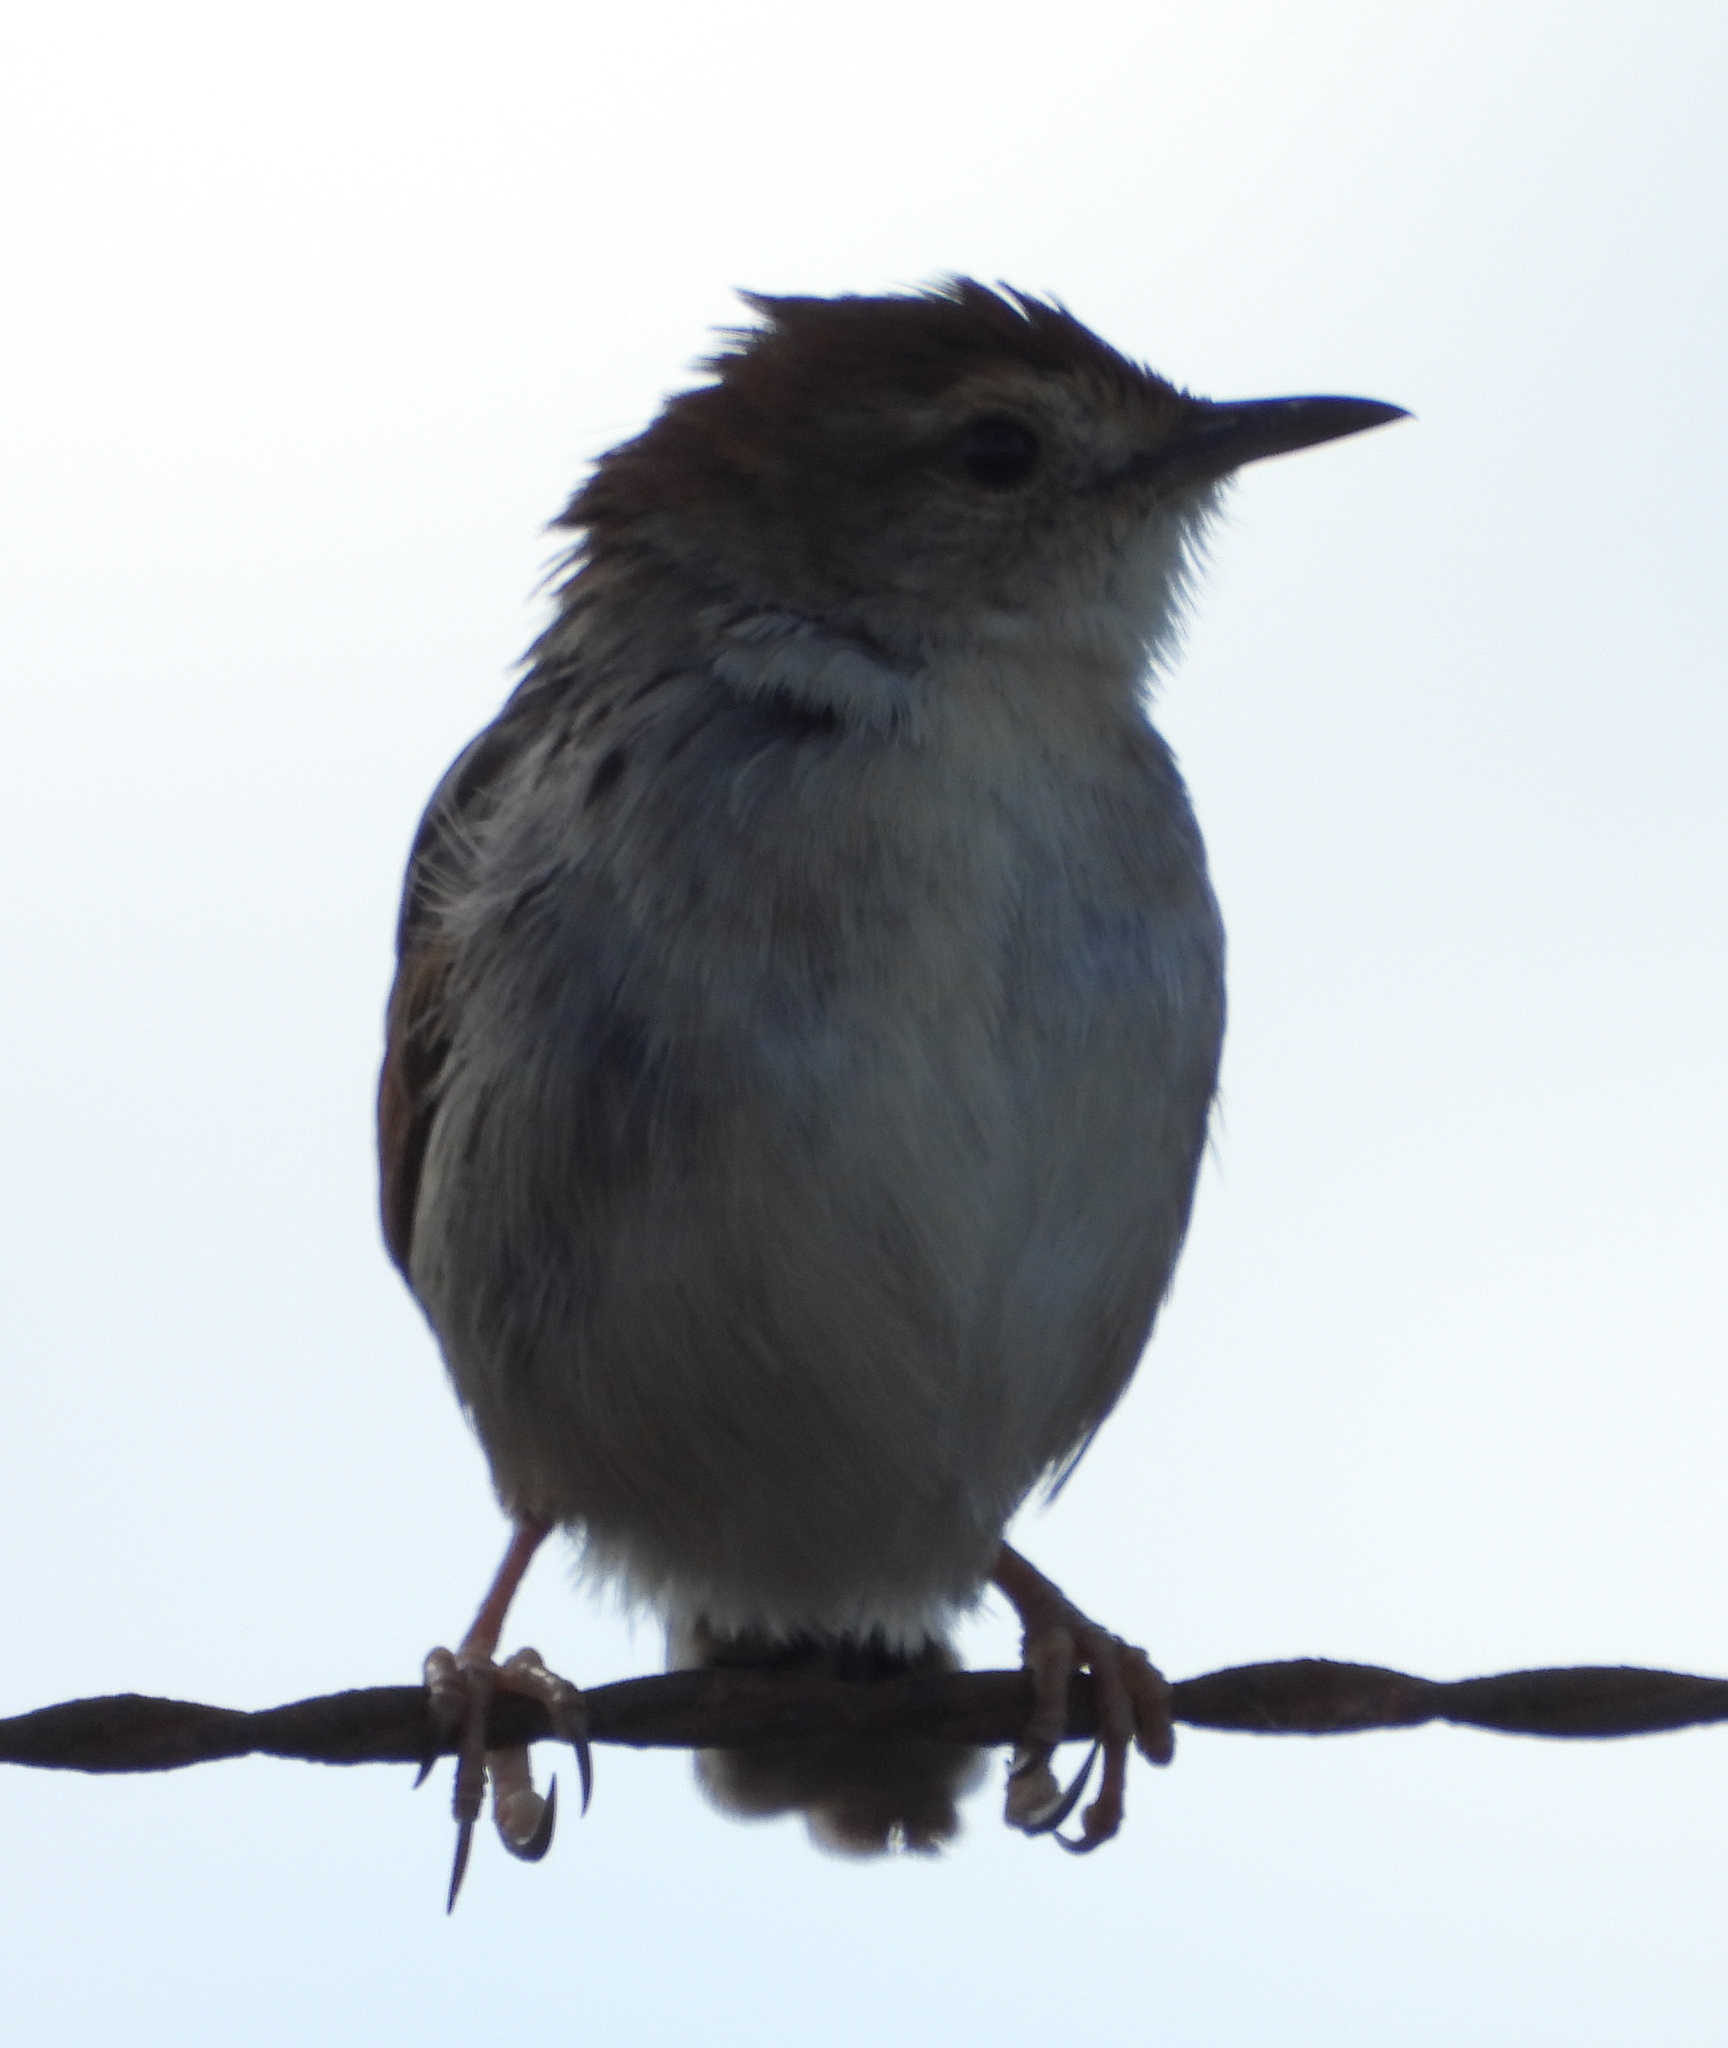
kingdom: Animalia
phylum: Chordata
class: Aves
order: Passeriformes
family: Cisticolidae
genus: Cisticola
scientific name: Cisticola tinniens
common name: Levaillant's cisticola
